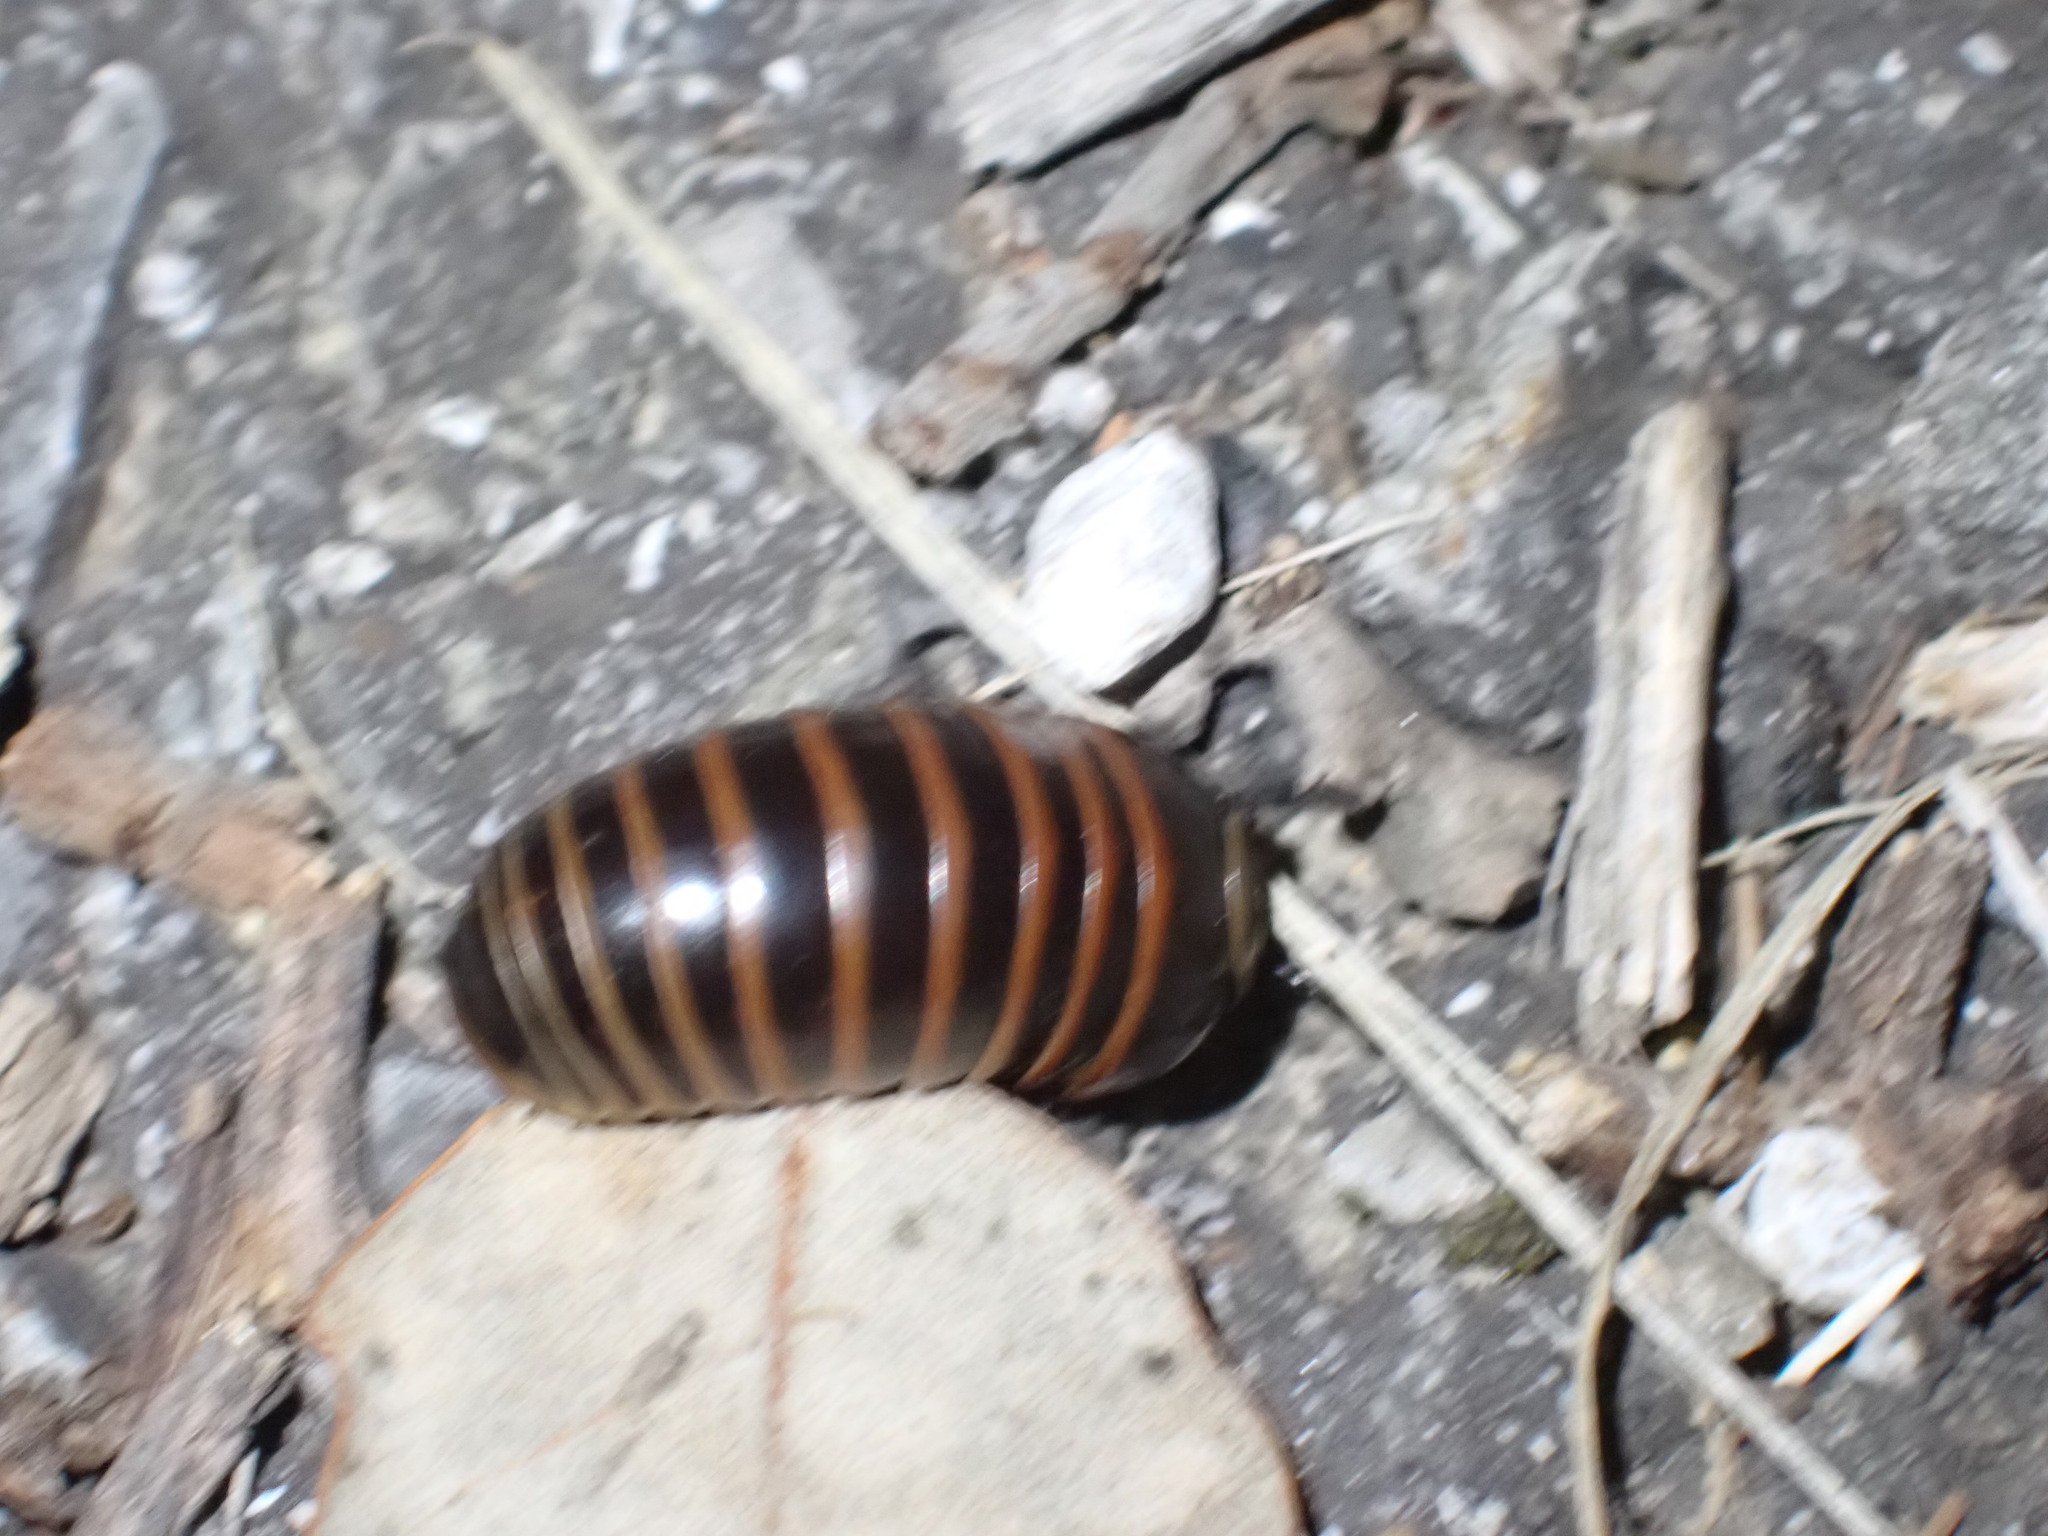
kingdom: Animalia
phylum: Arthropoda
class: Diplopoda
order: Glomerida
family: Glomeridae
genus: Glomeris
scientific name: Glomeris marginata
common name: Bordered pill millipede
